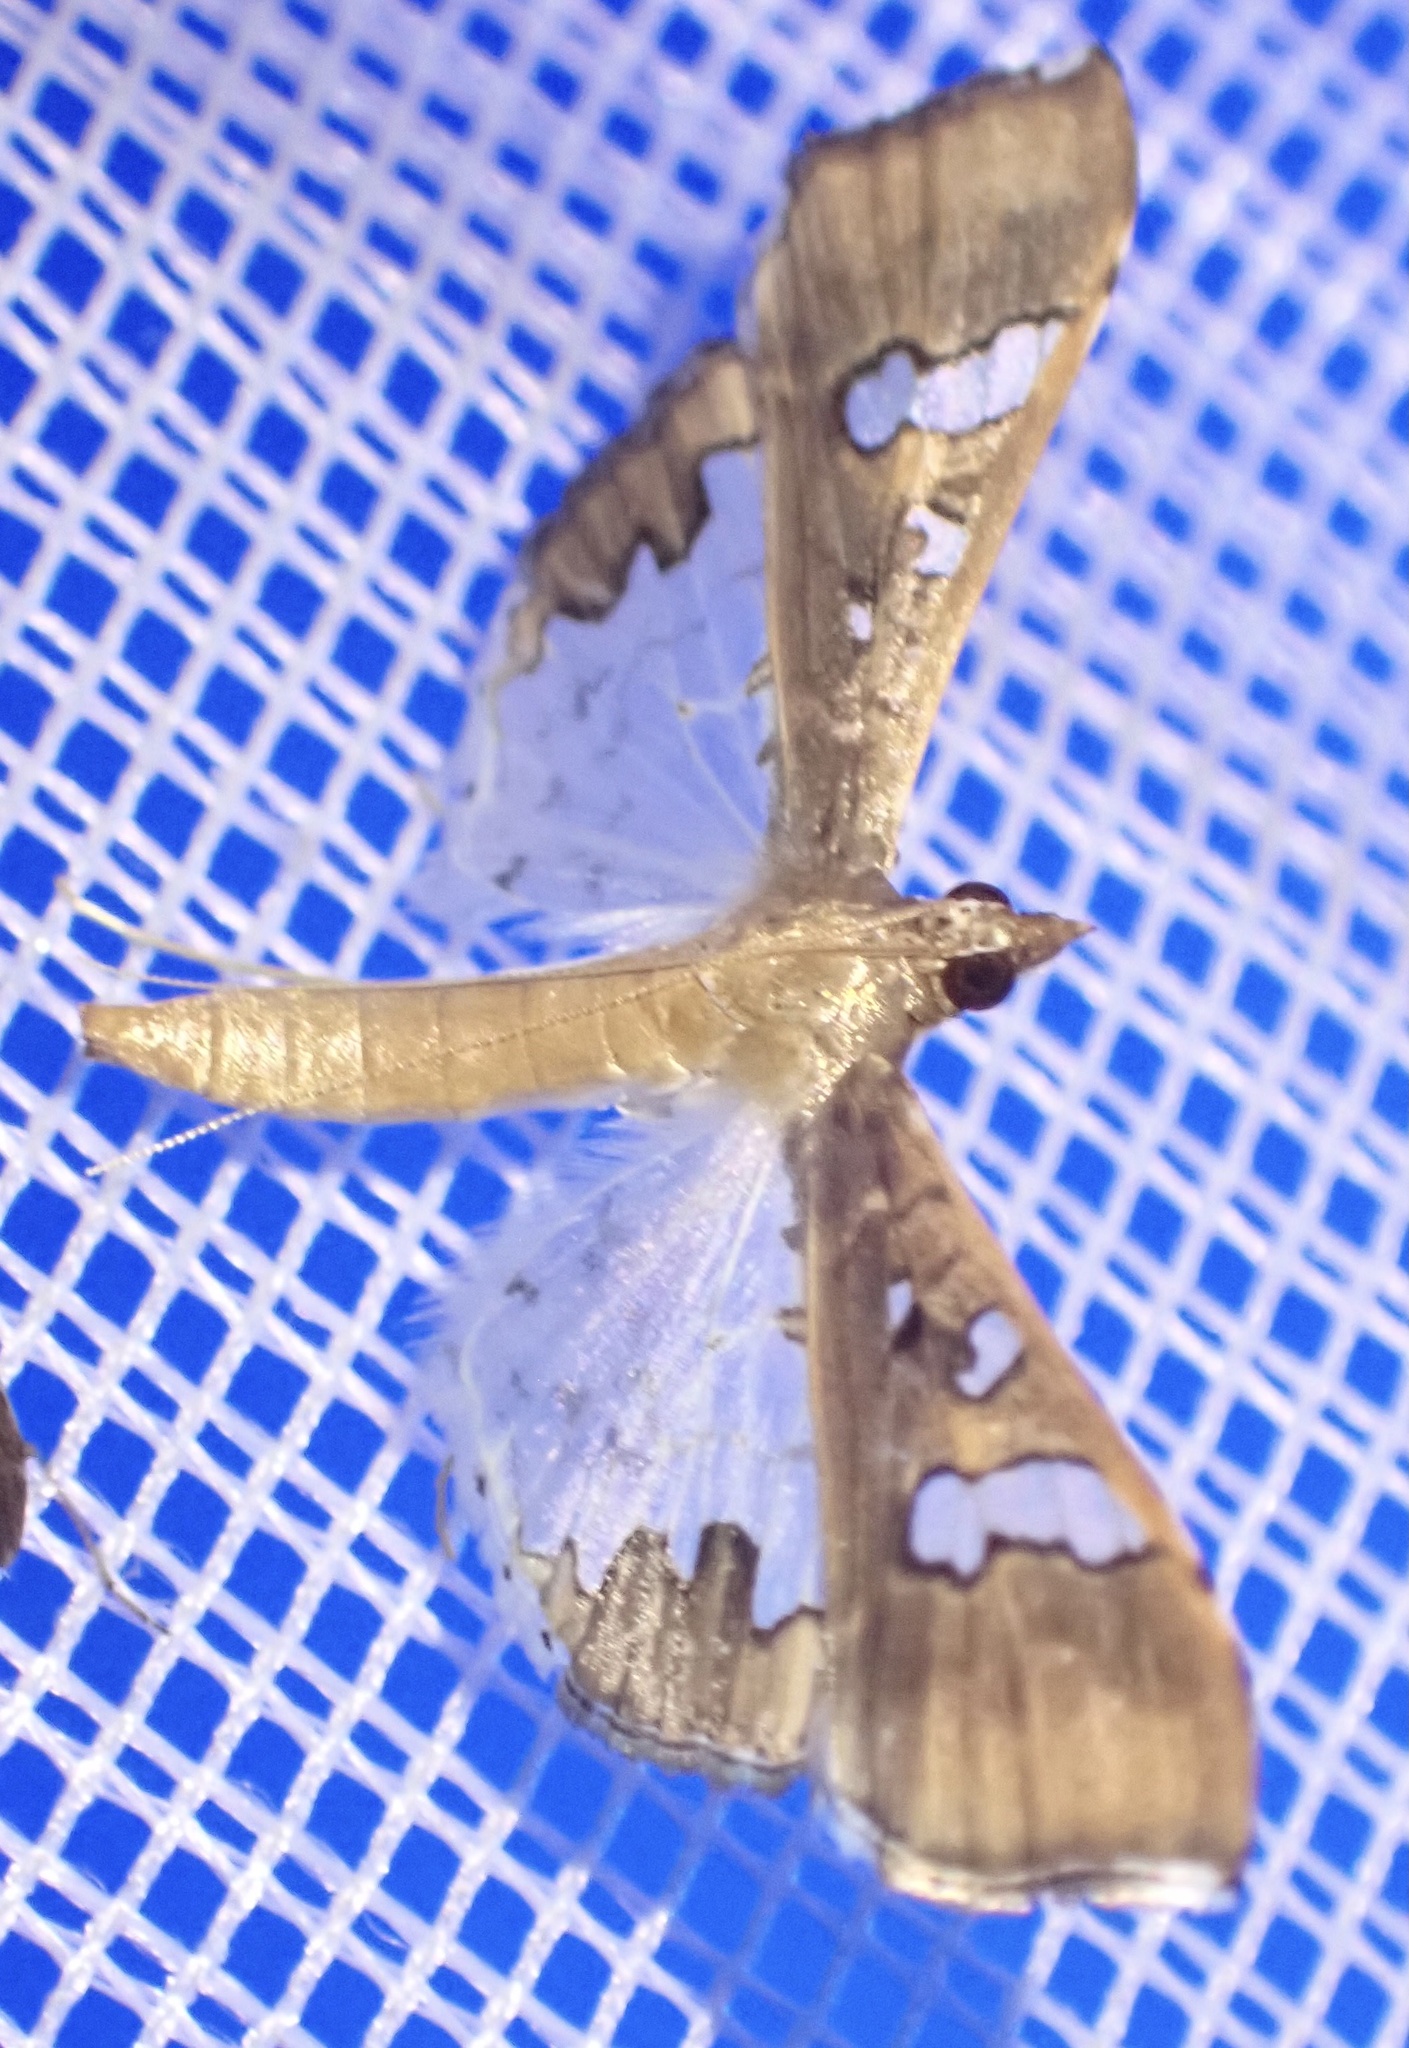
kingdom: Animalia
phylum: Arthropoda
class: Insecta
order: Lepidoptera
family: Crambidae
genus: Maruca
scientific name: Maruca vitrata
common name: Maruca pod borer
